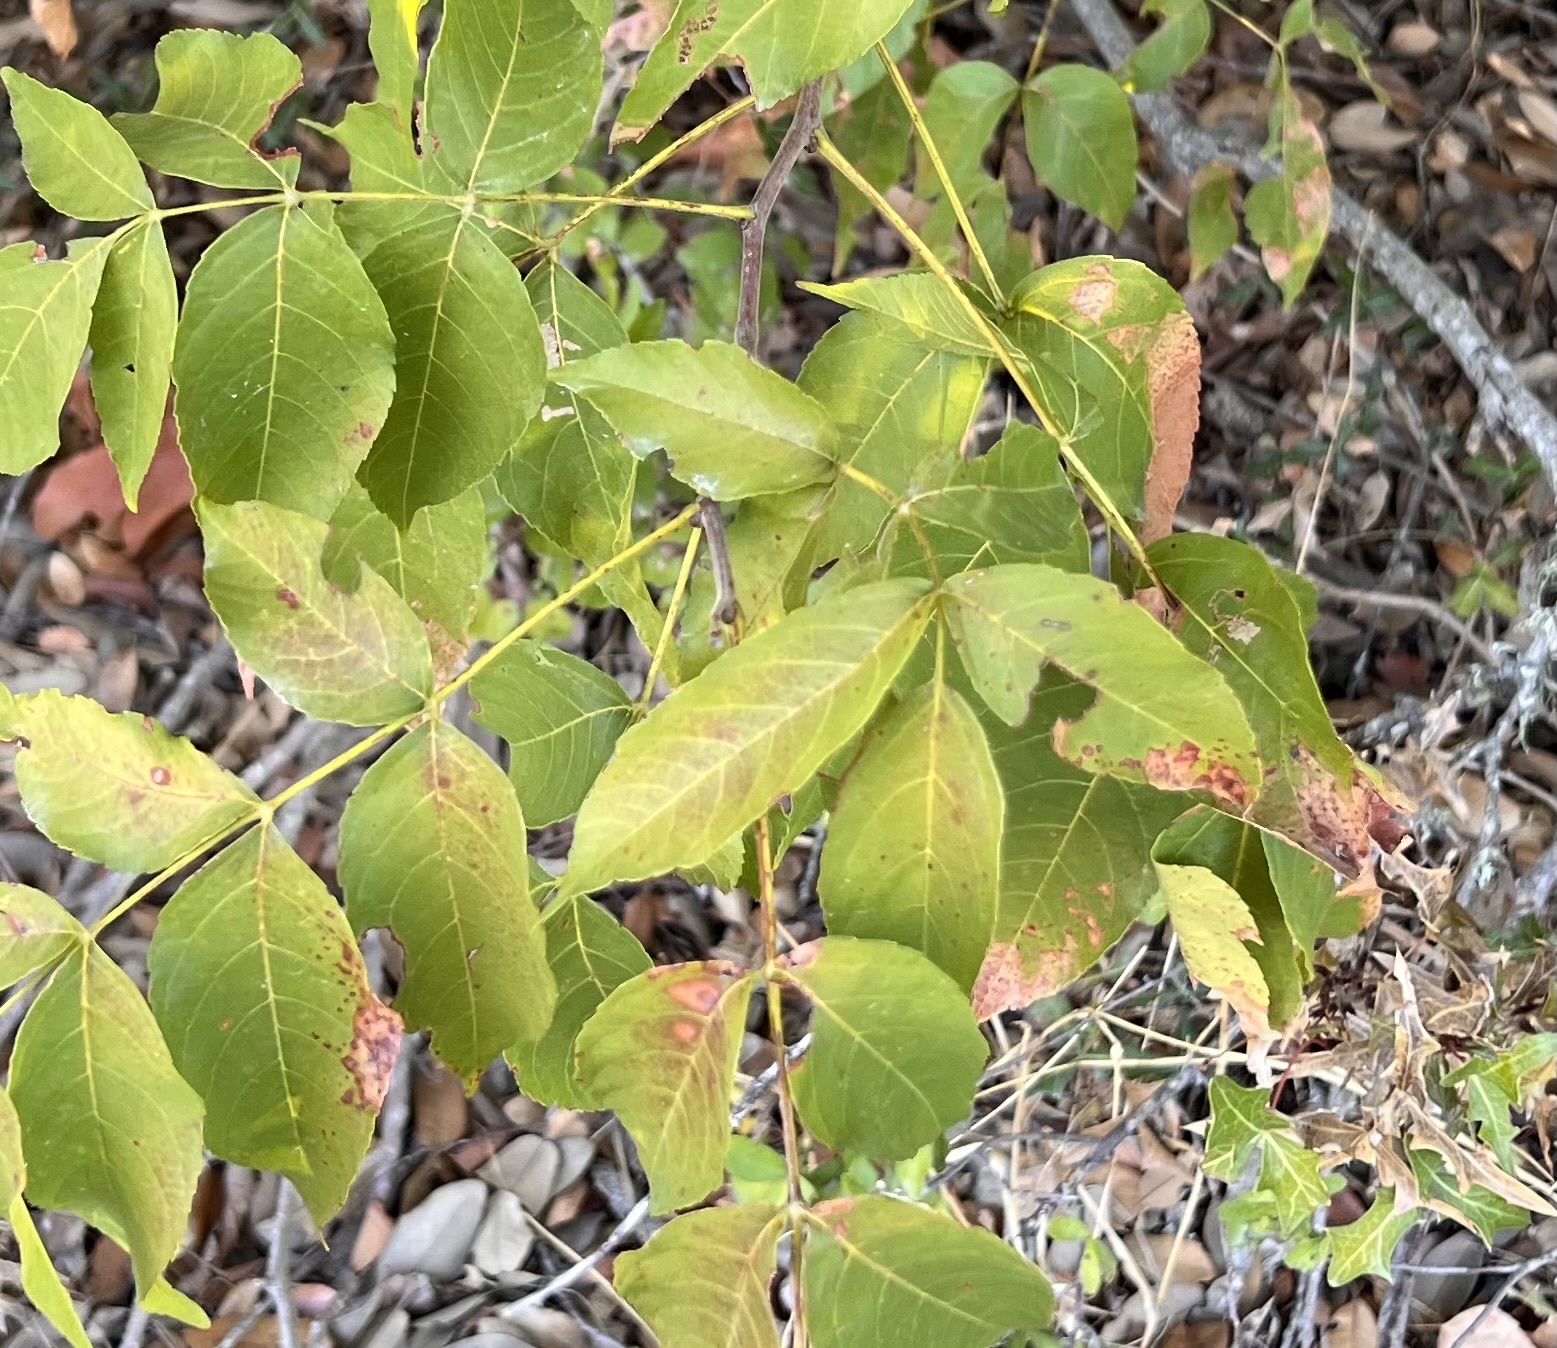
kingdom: Plantae
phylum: Tracheophyta
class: Magnoliopsida
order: Sapindales
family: Sapindaceae
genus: Ungnadia
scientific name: Ungnadia speciosa
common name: Texas-buckeye
